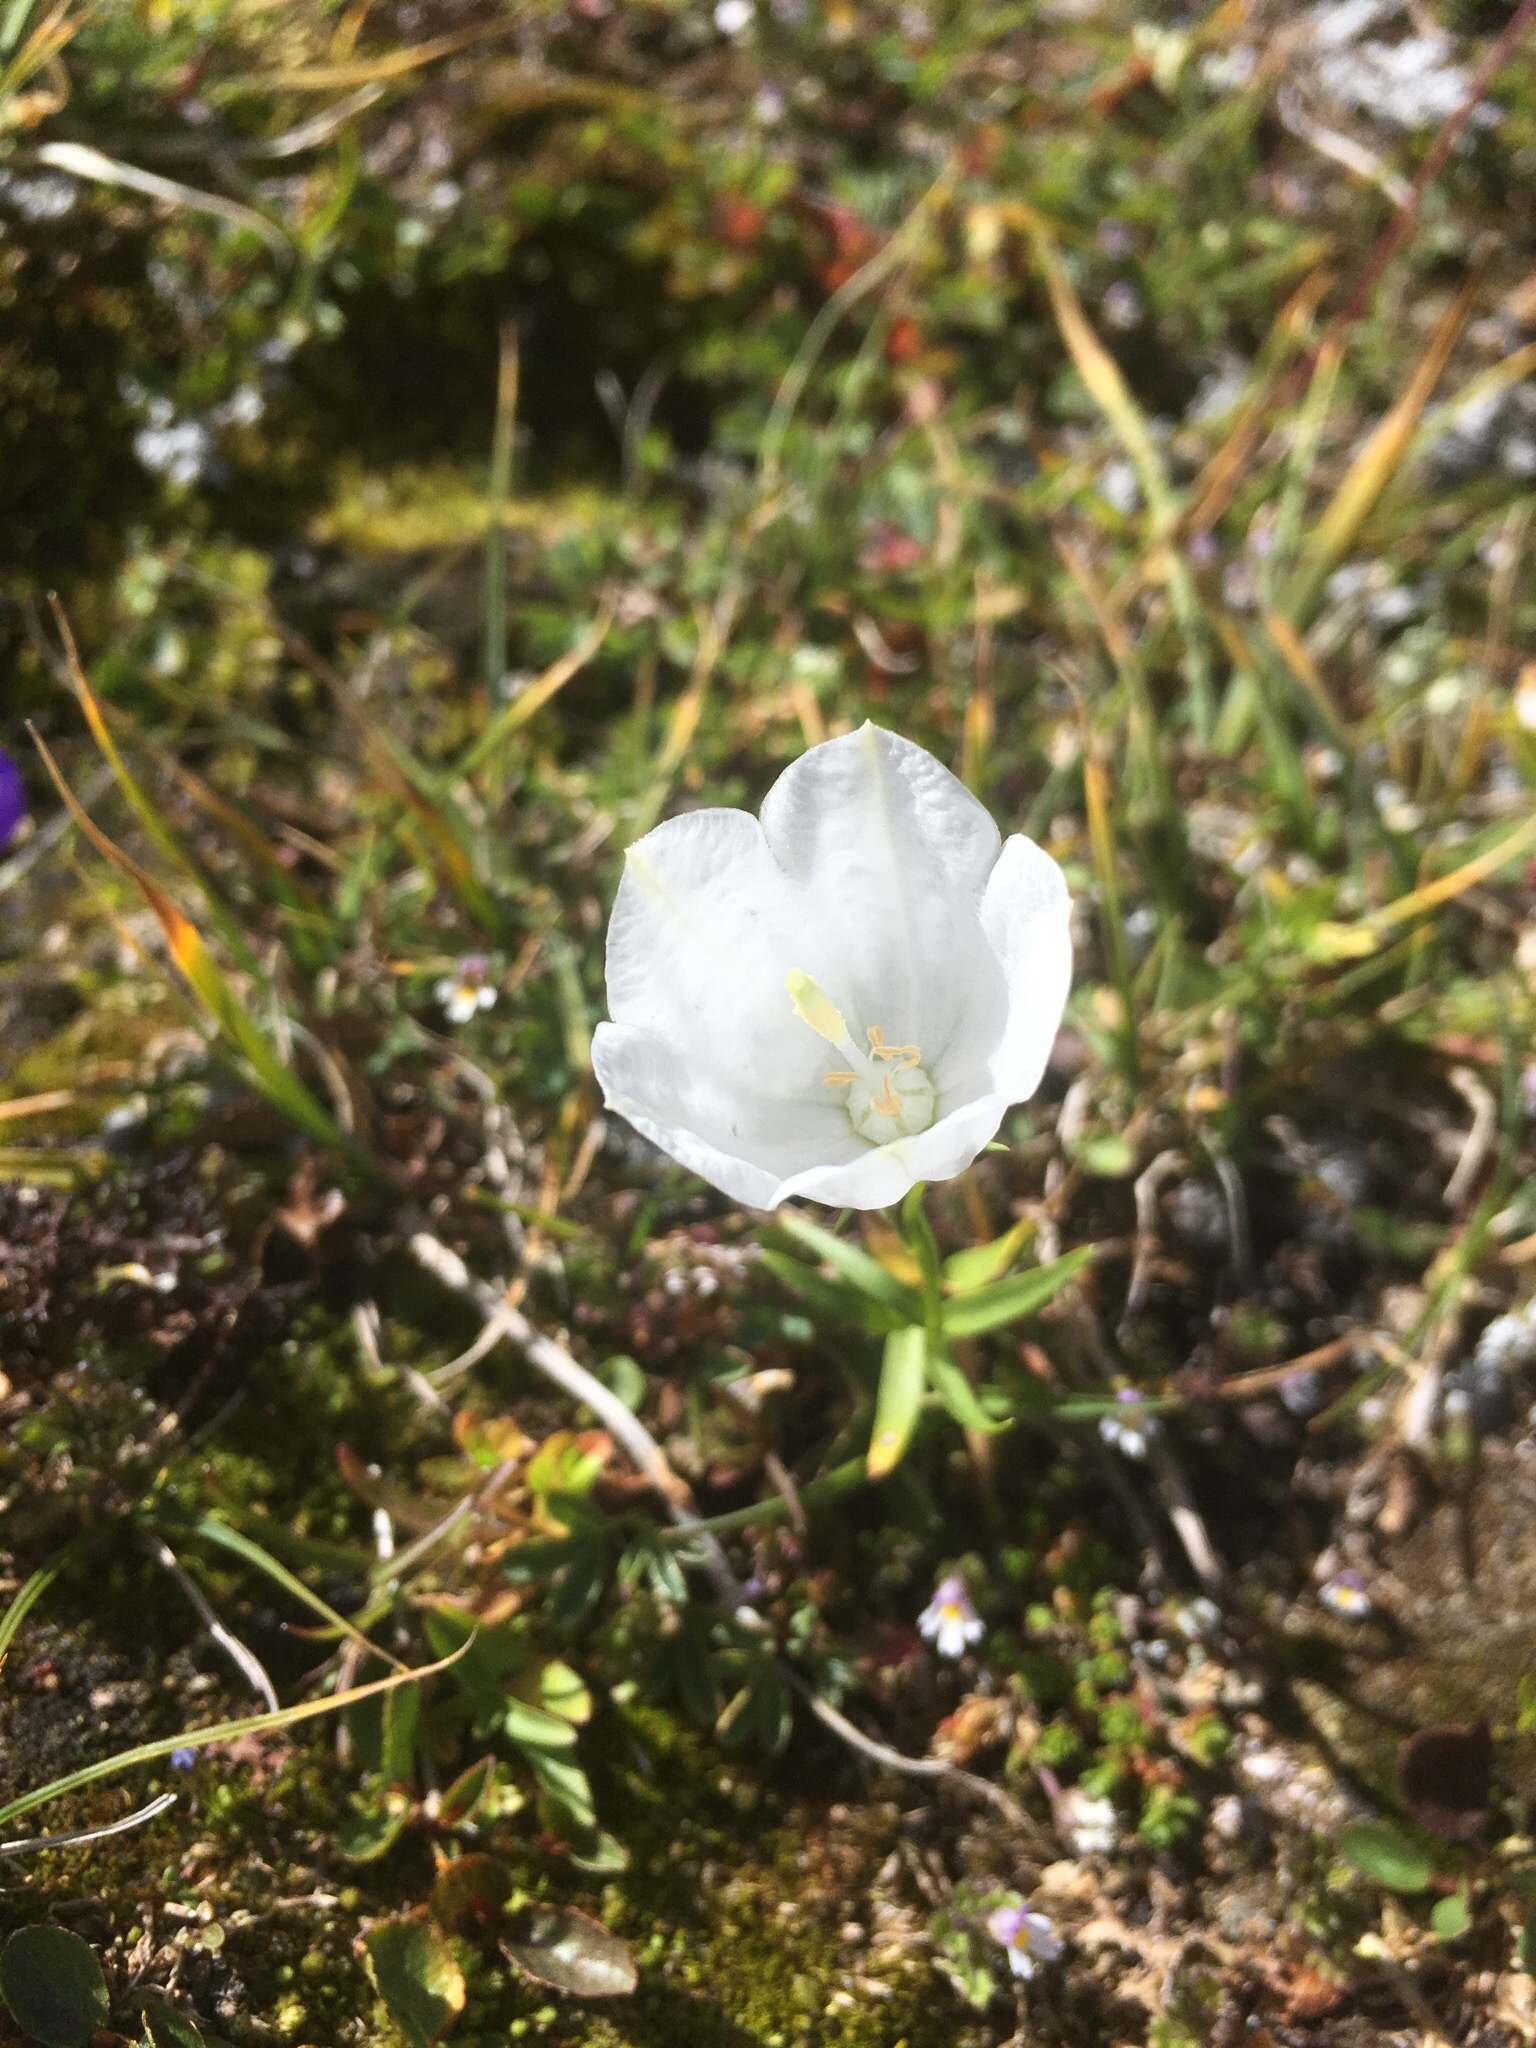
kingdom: Plantae
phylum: Tracheophyta
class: Magnoliopsida
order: Asterales
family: Campanulaceae
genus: Campanula
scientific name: Campanula scheuchzeri
